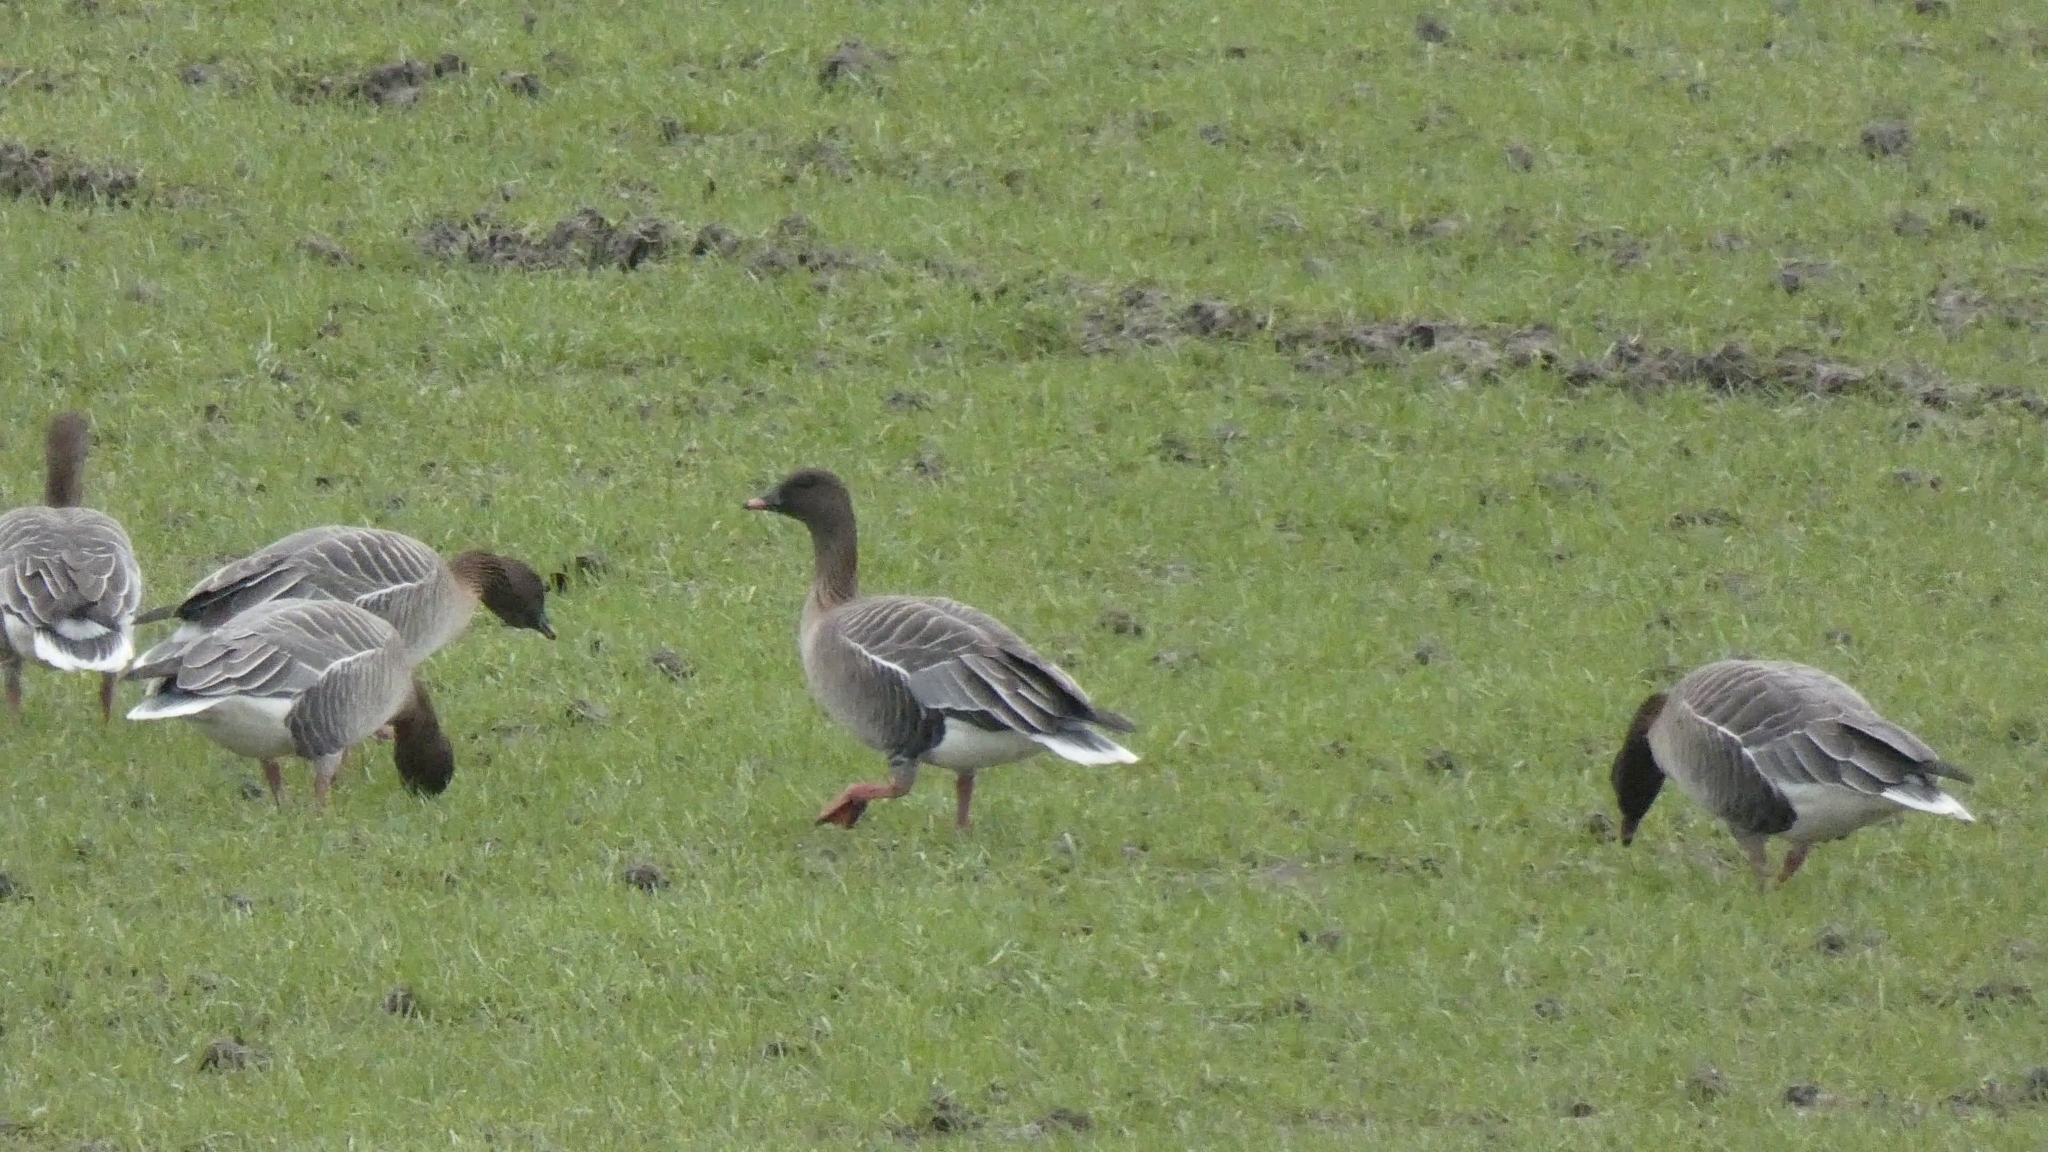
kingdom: Animalia
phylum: Chordata
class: Aves
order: Anseriformes
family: Anatidae
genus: Anser
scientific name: Anser brachyrhynchus
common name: Pink-footed goose
